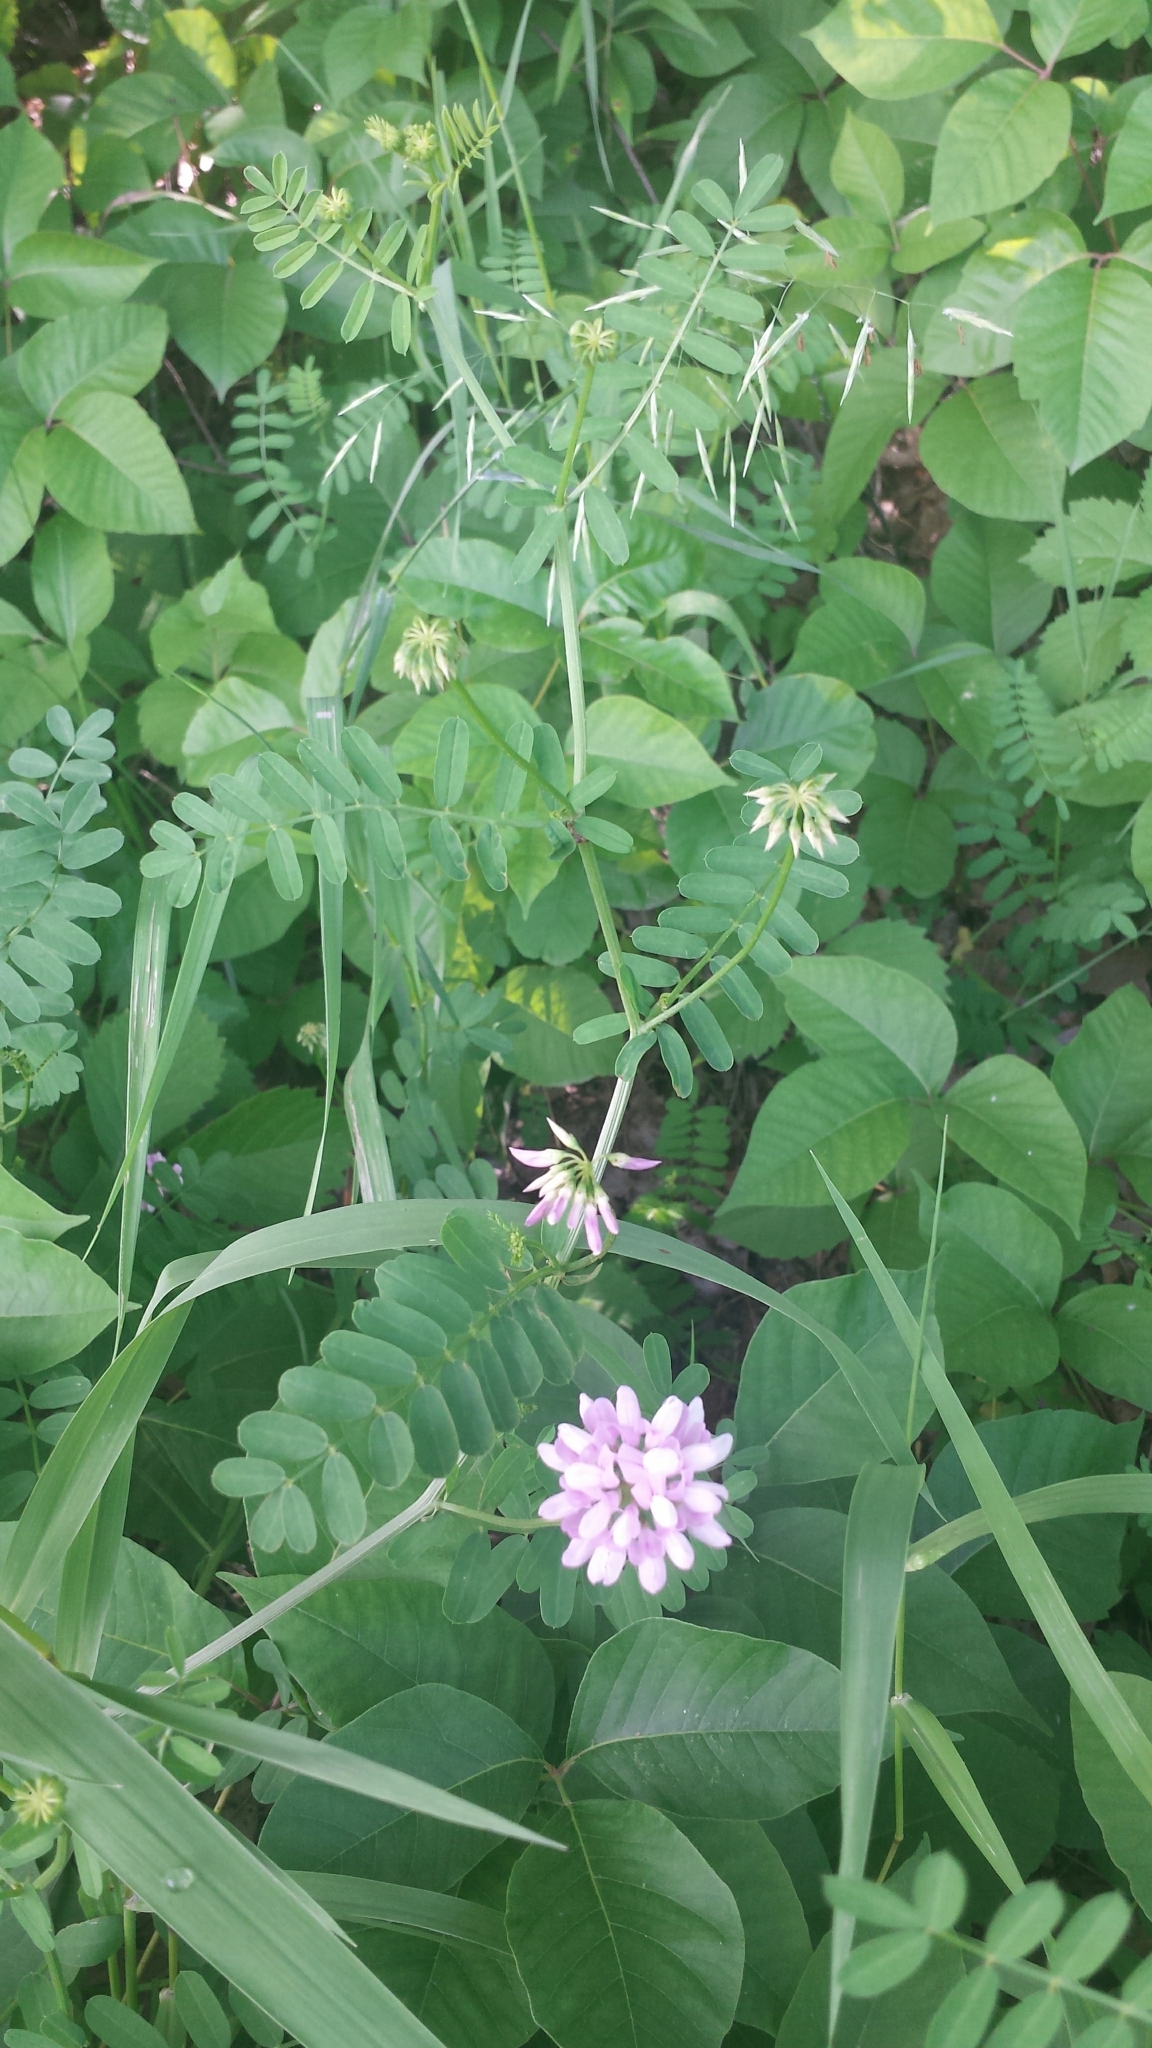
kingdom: Plantae
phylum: Tracheophyta
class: Magnoliopsida
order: Fabales
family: Fabaceae
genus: Coronilla
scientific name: Coronilla varia
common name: Crownvetch
